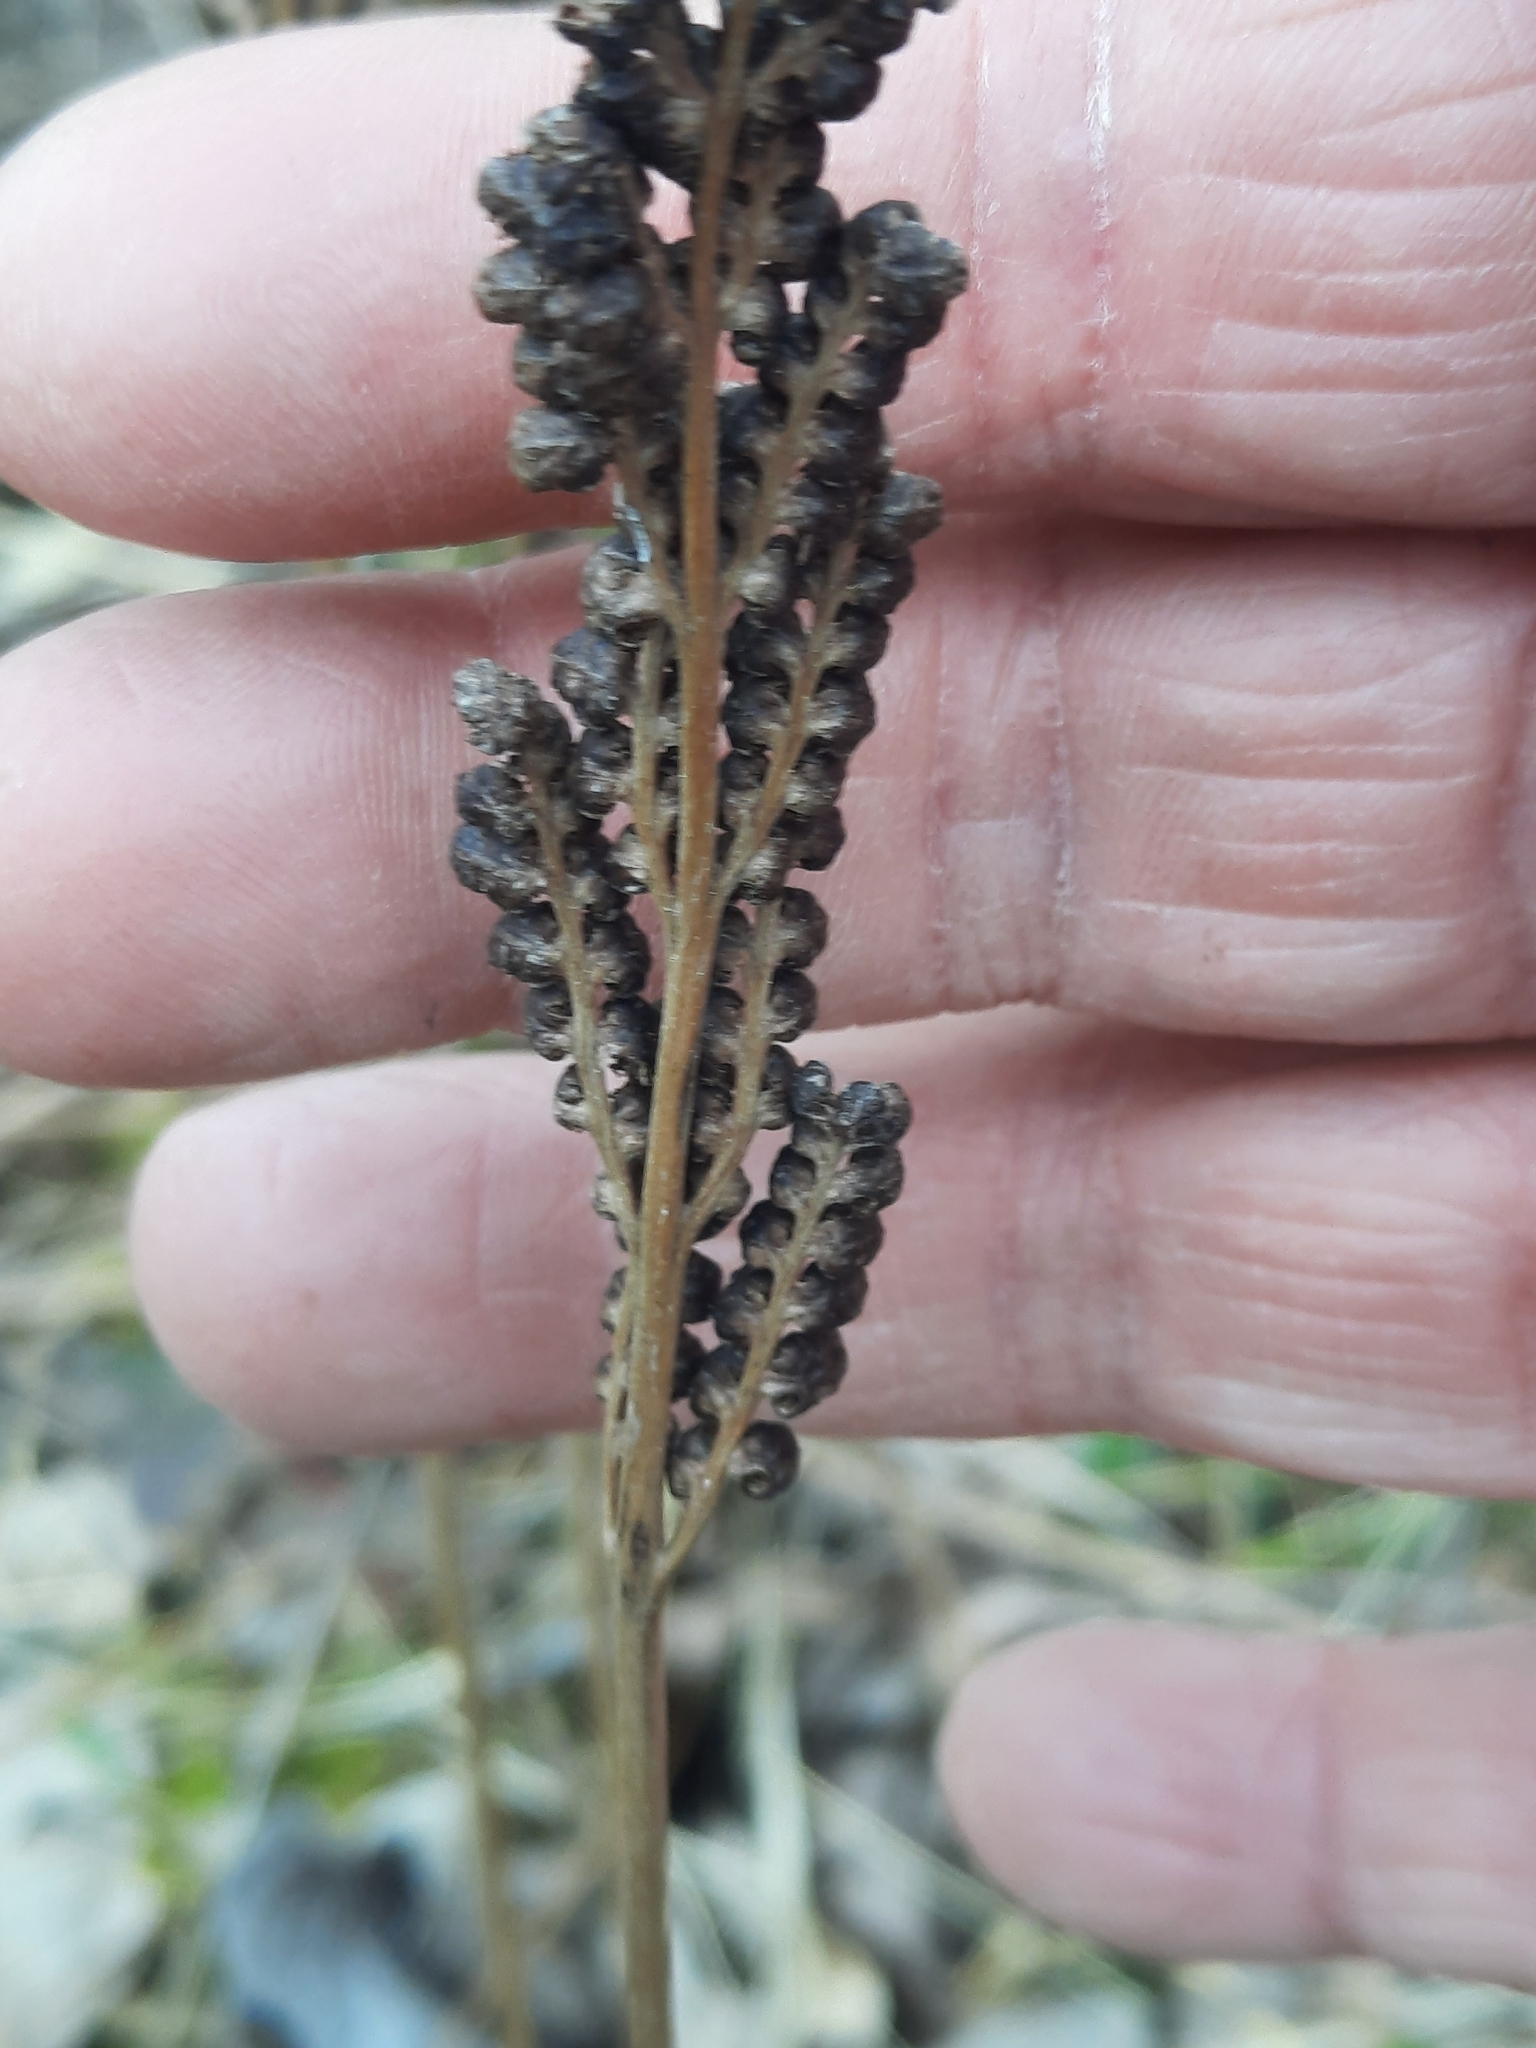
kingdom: Plantae
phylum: Tracheophyta
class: Polypodiopsida
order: Polypodiales
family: Onocleaceae
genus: Onoclea
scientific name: Onoclea sensibilis
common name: Sensitive fern
